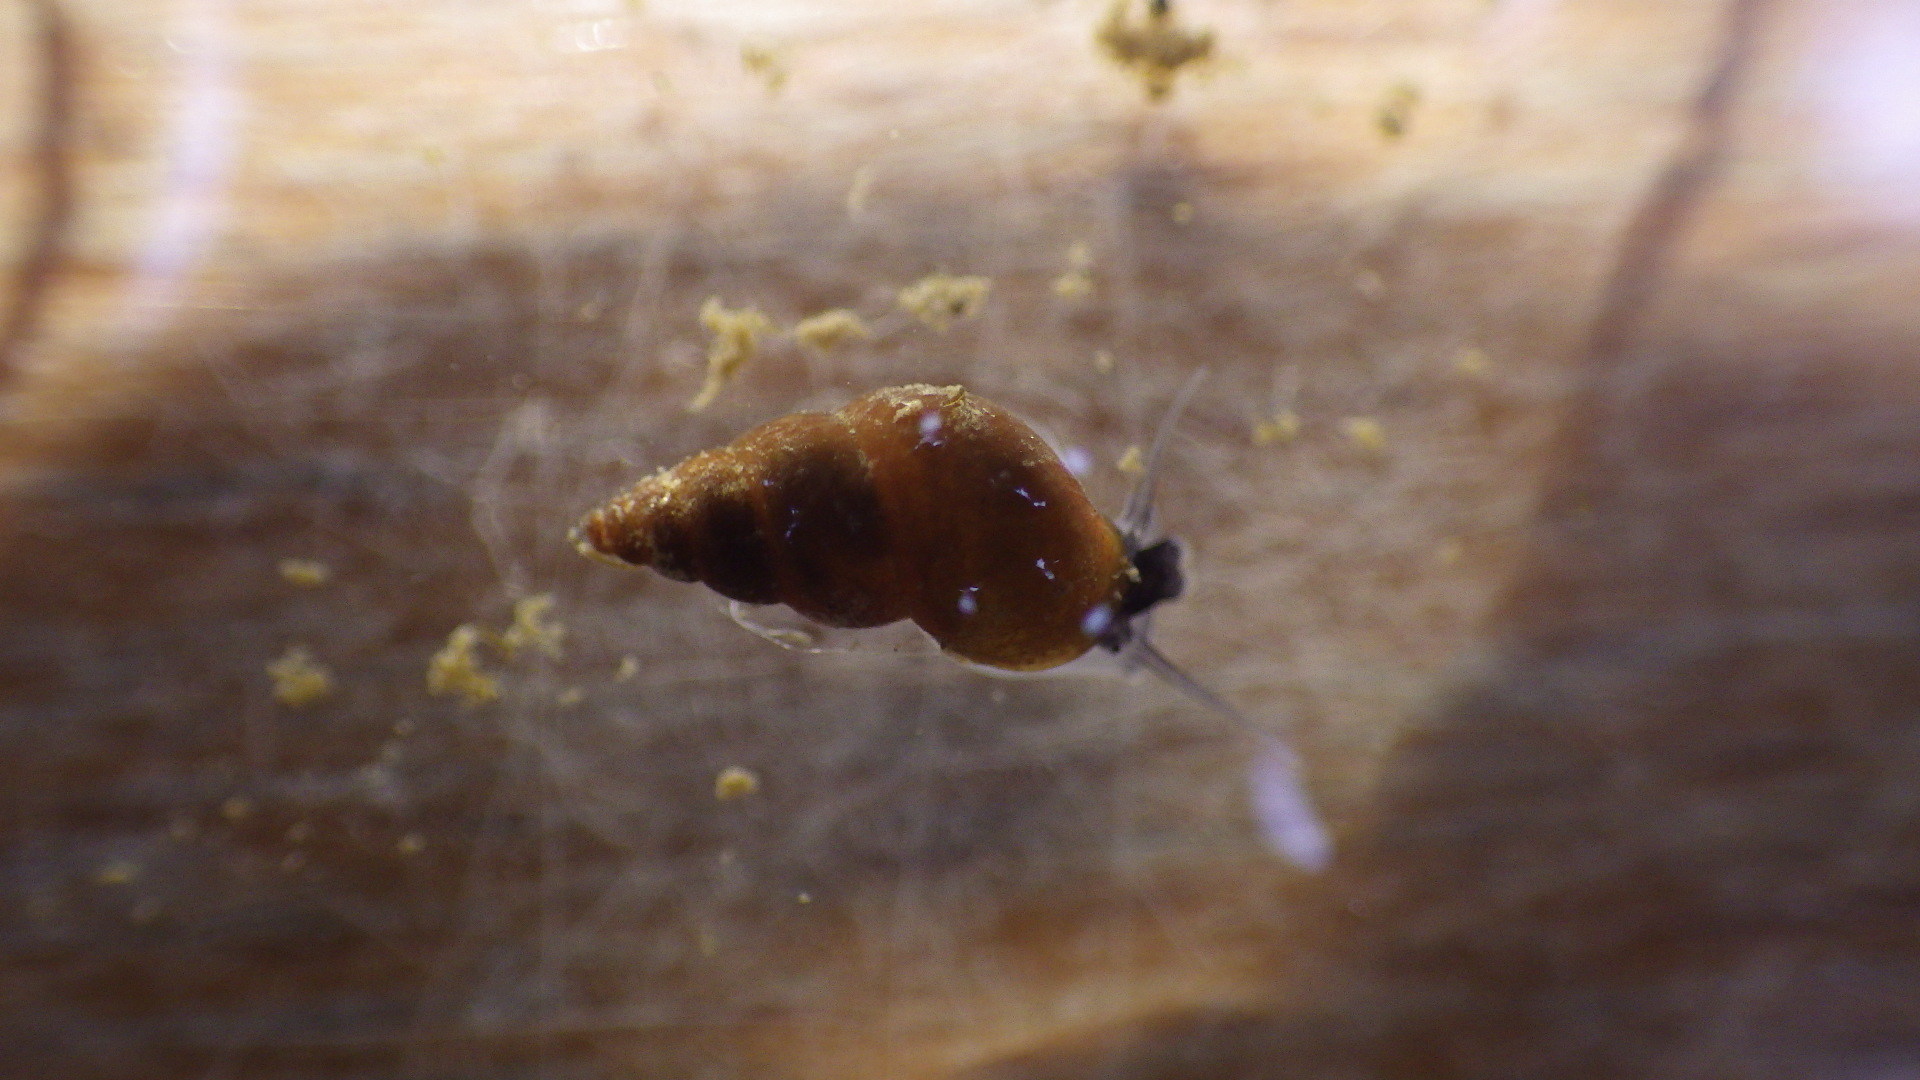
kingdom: Animalia
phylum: Mollusca
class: Gastropoda
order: Littorinimorpha
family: Tateidae
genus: Potamopyrgus
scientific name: Potamopyrgus antipodarum
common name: Jenkins' spire snail
